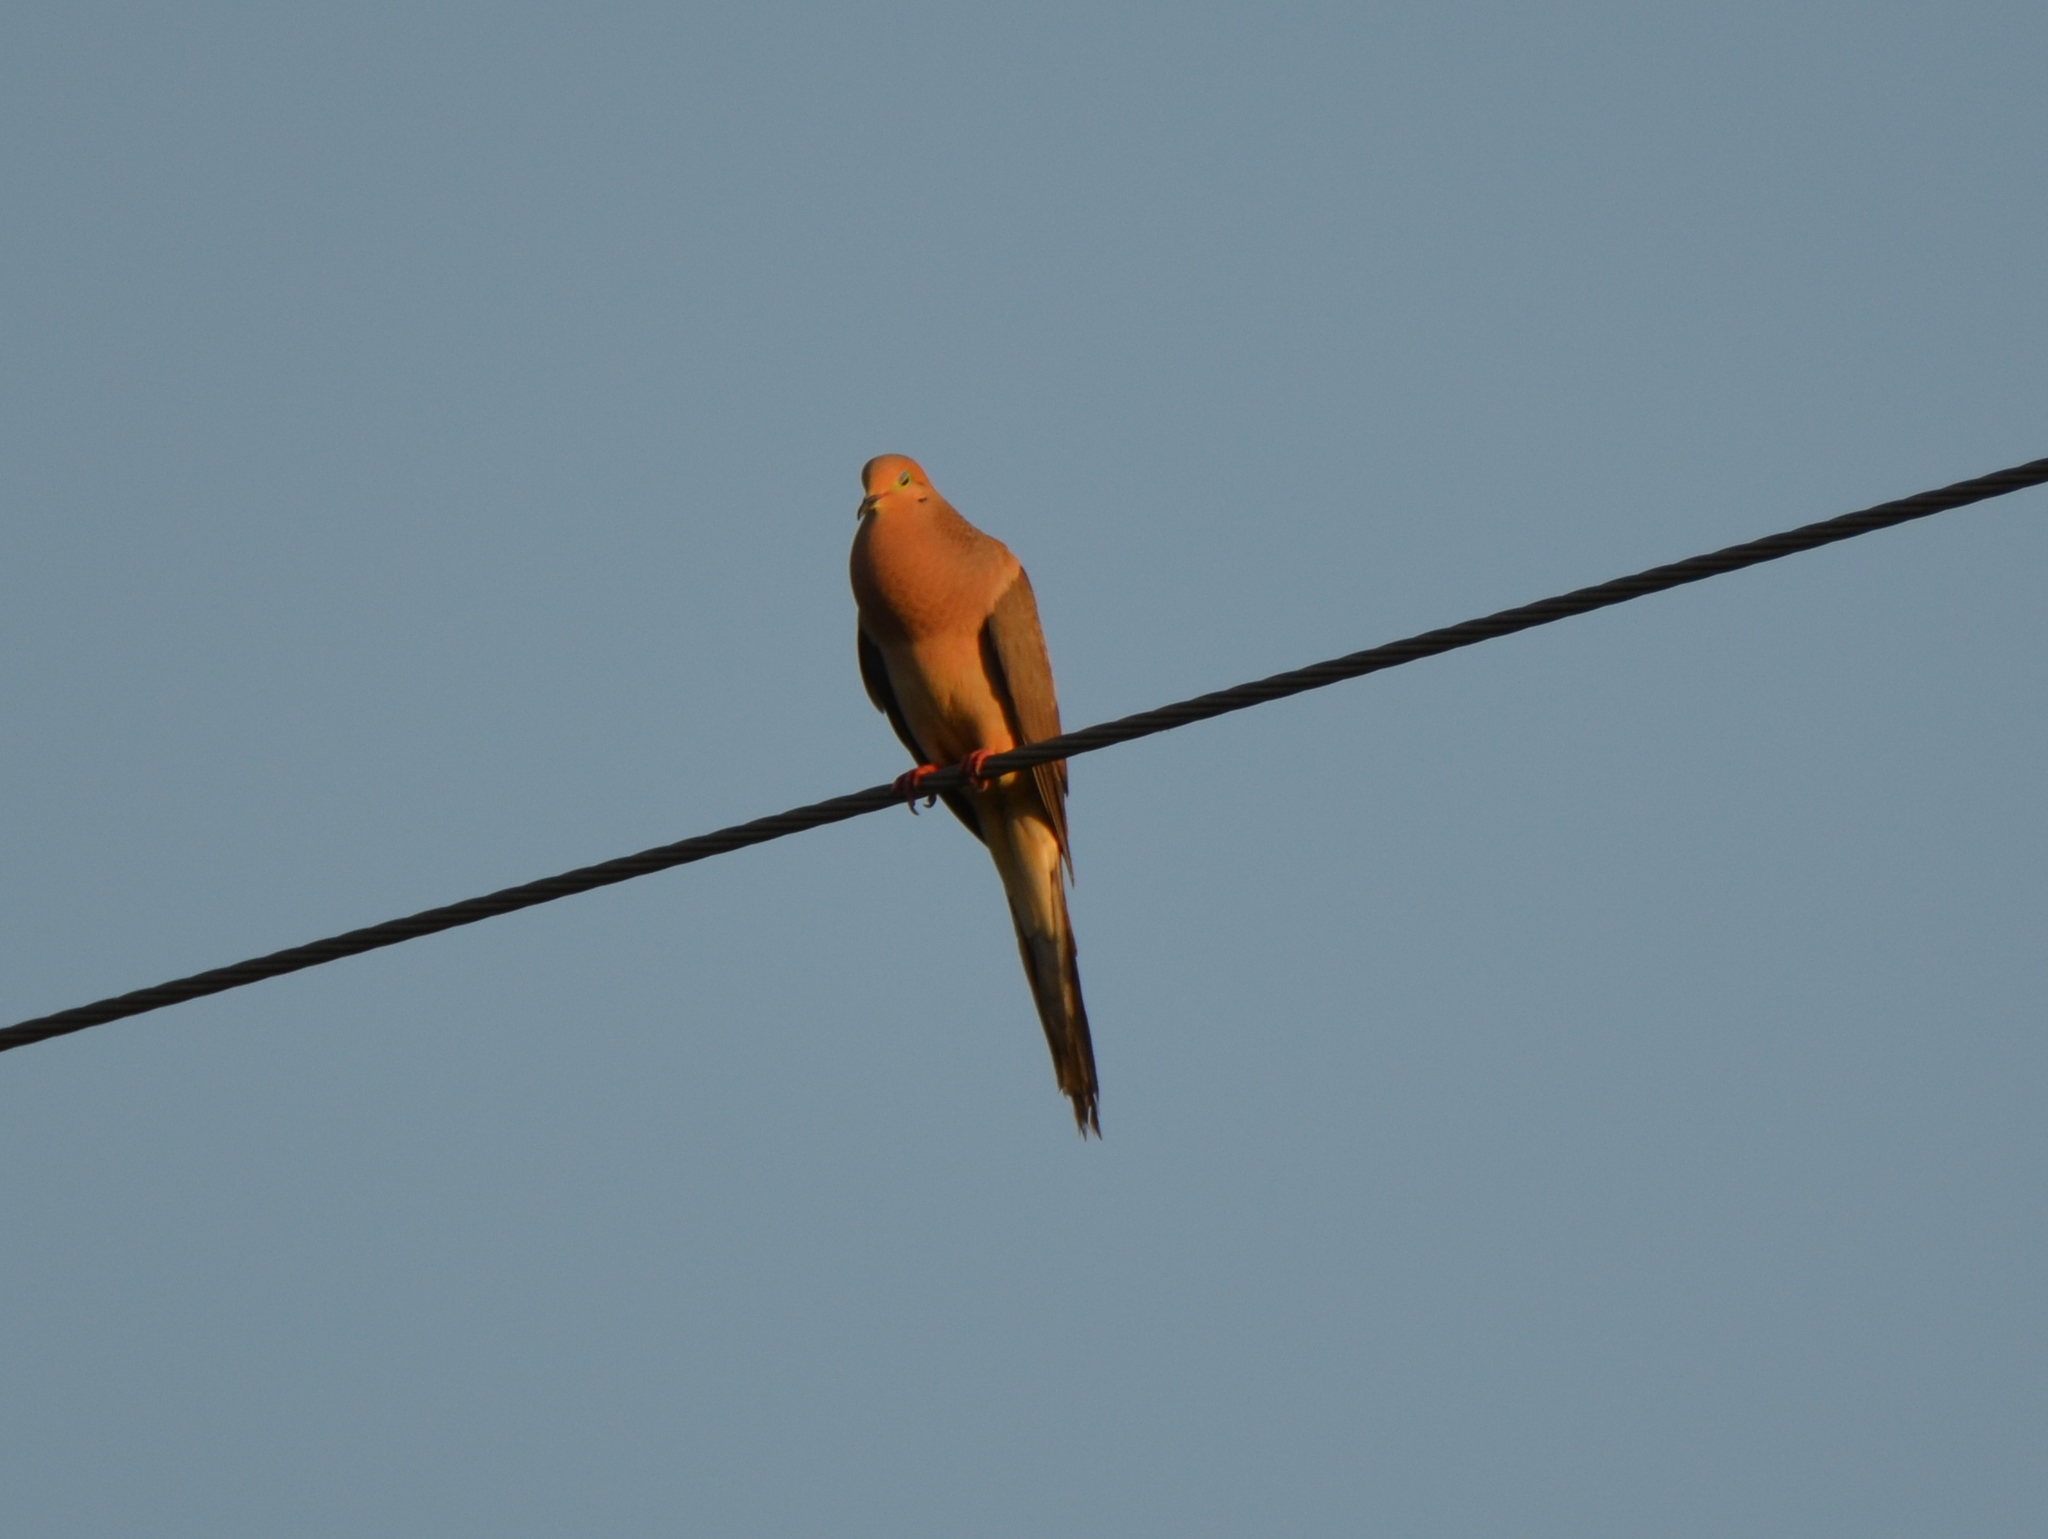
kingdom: Animalia
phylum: Chordata
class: Aves
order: Columbiformes
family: Columbidae
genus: Zenaida
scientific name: Zenaida macroura
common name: Mourning dove
